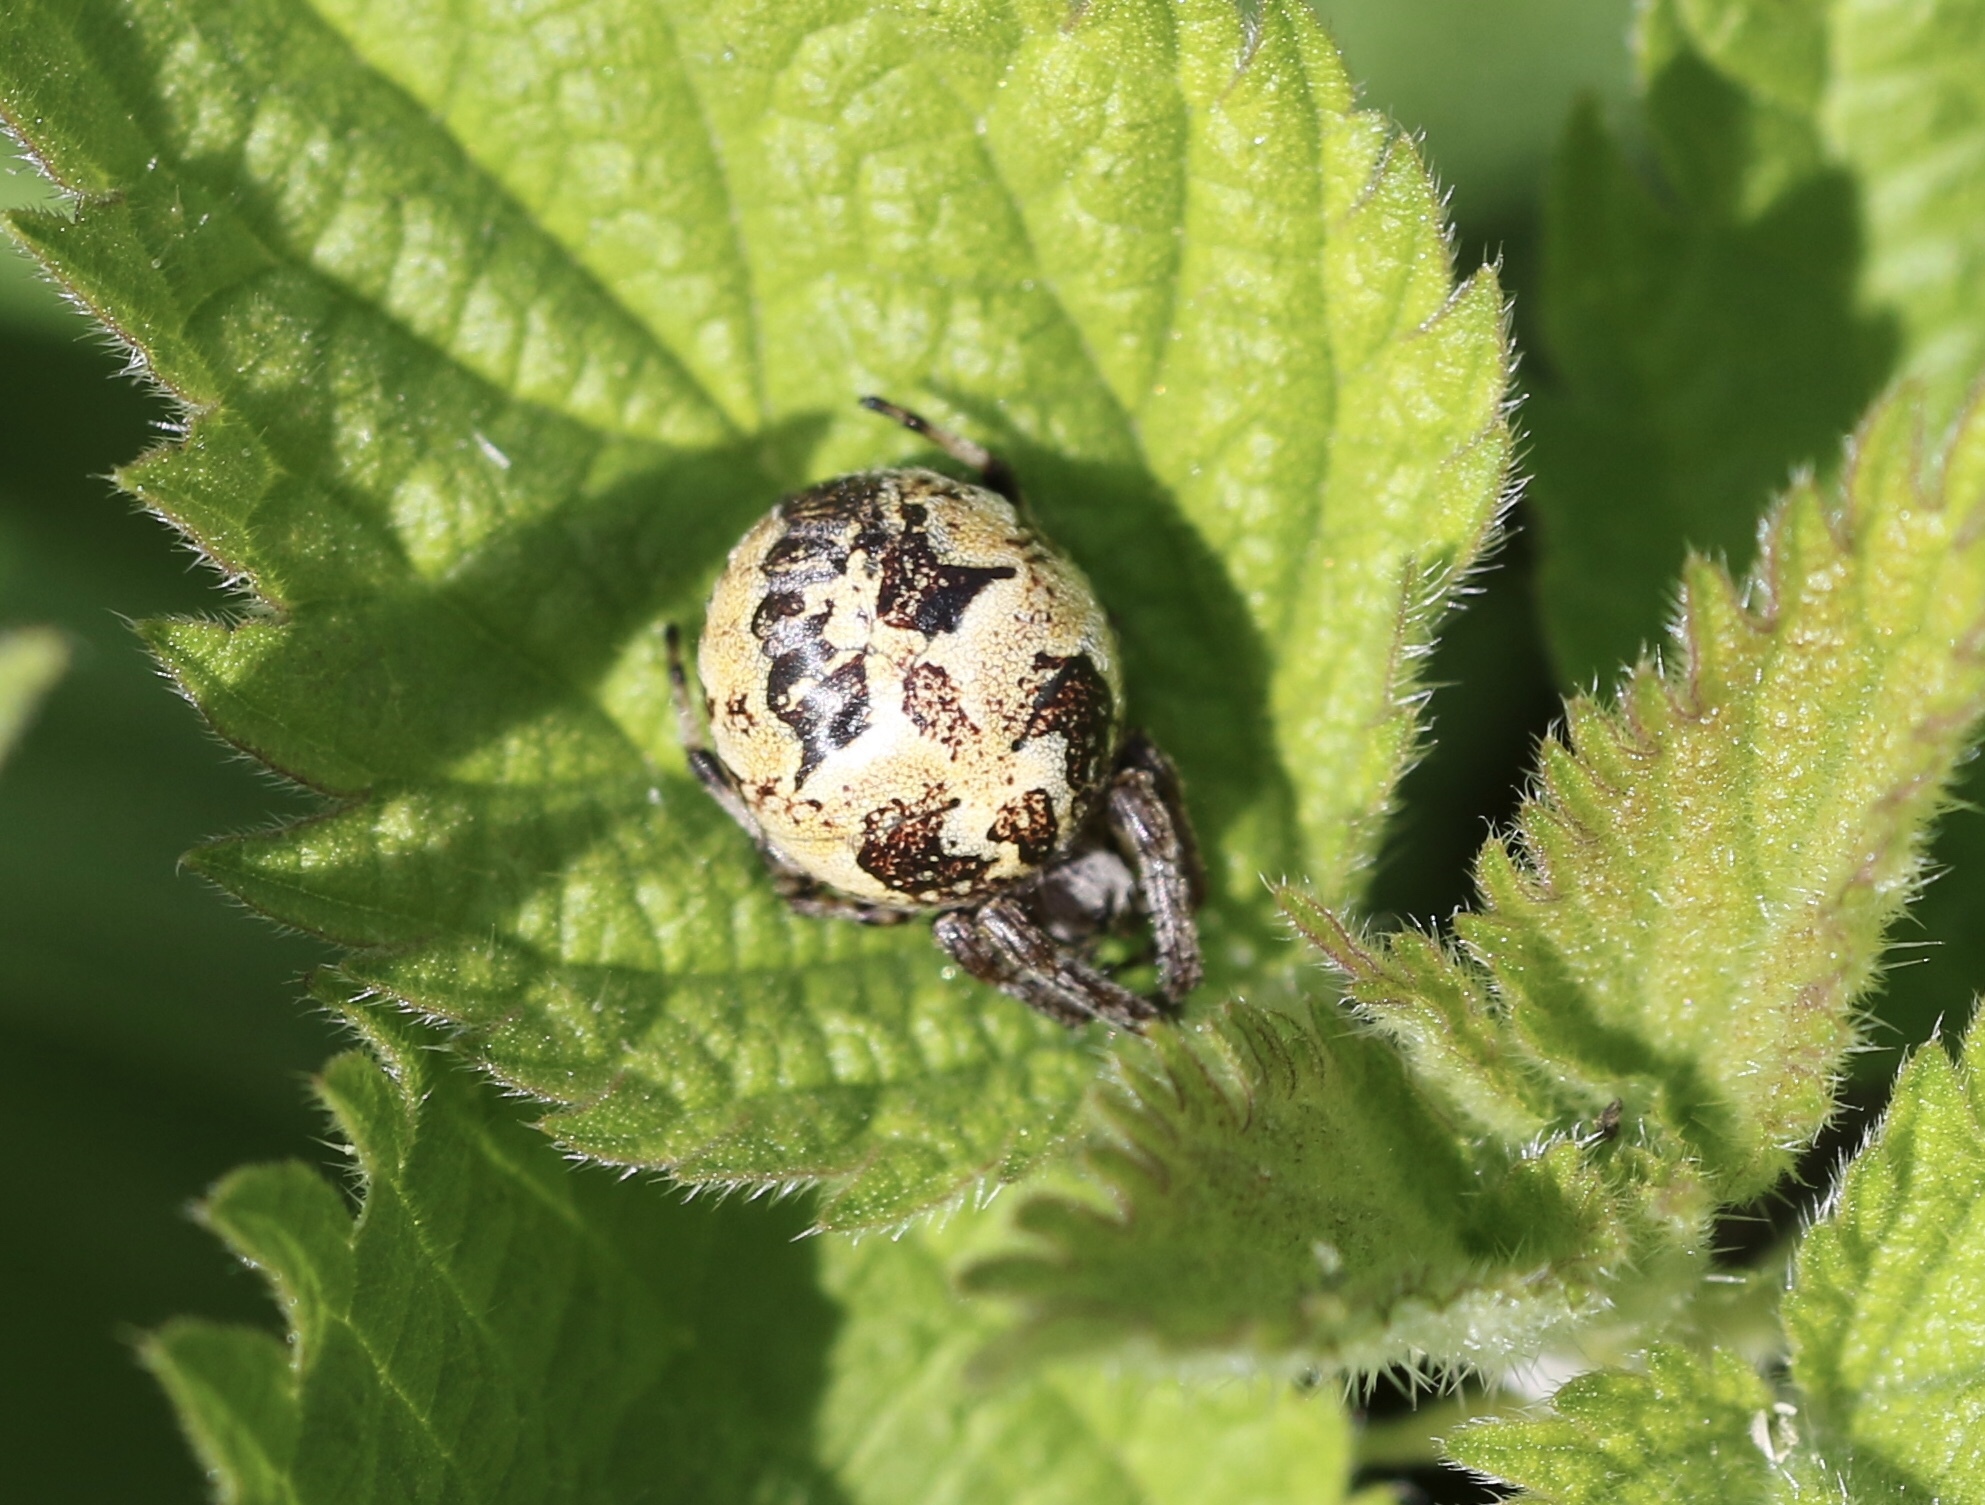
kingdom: Animalia
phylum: Arthropoda
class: Arachnida
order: Araneae
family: Araneidae
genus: Larinioides
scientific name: Larinioides cornutus
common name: Furrow orbweaver
